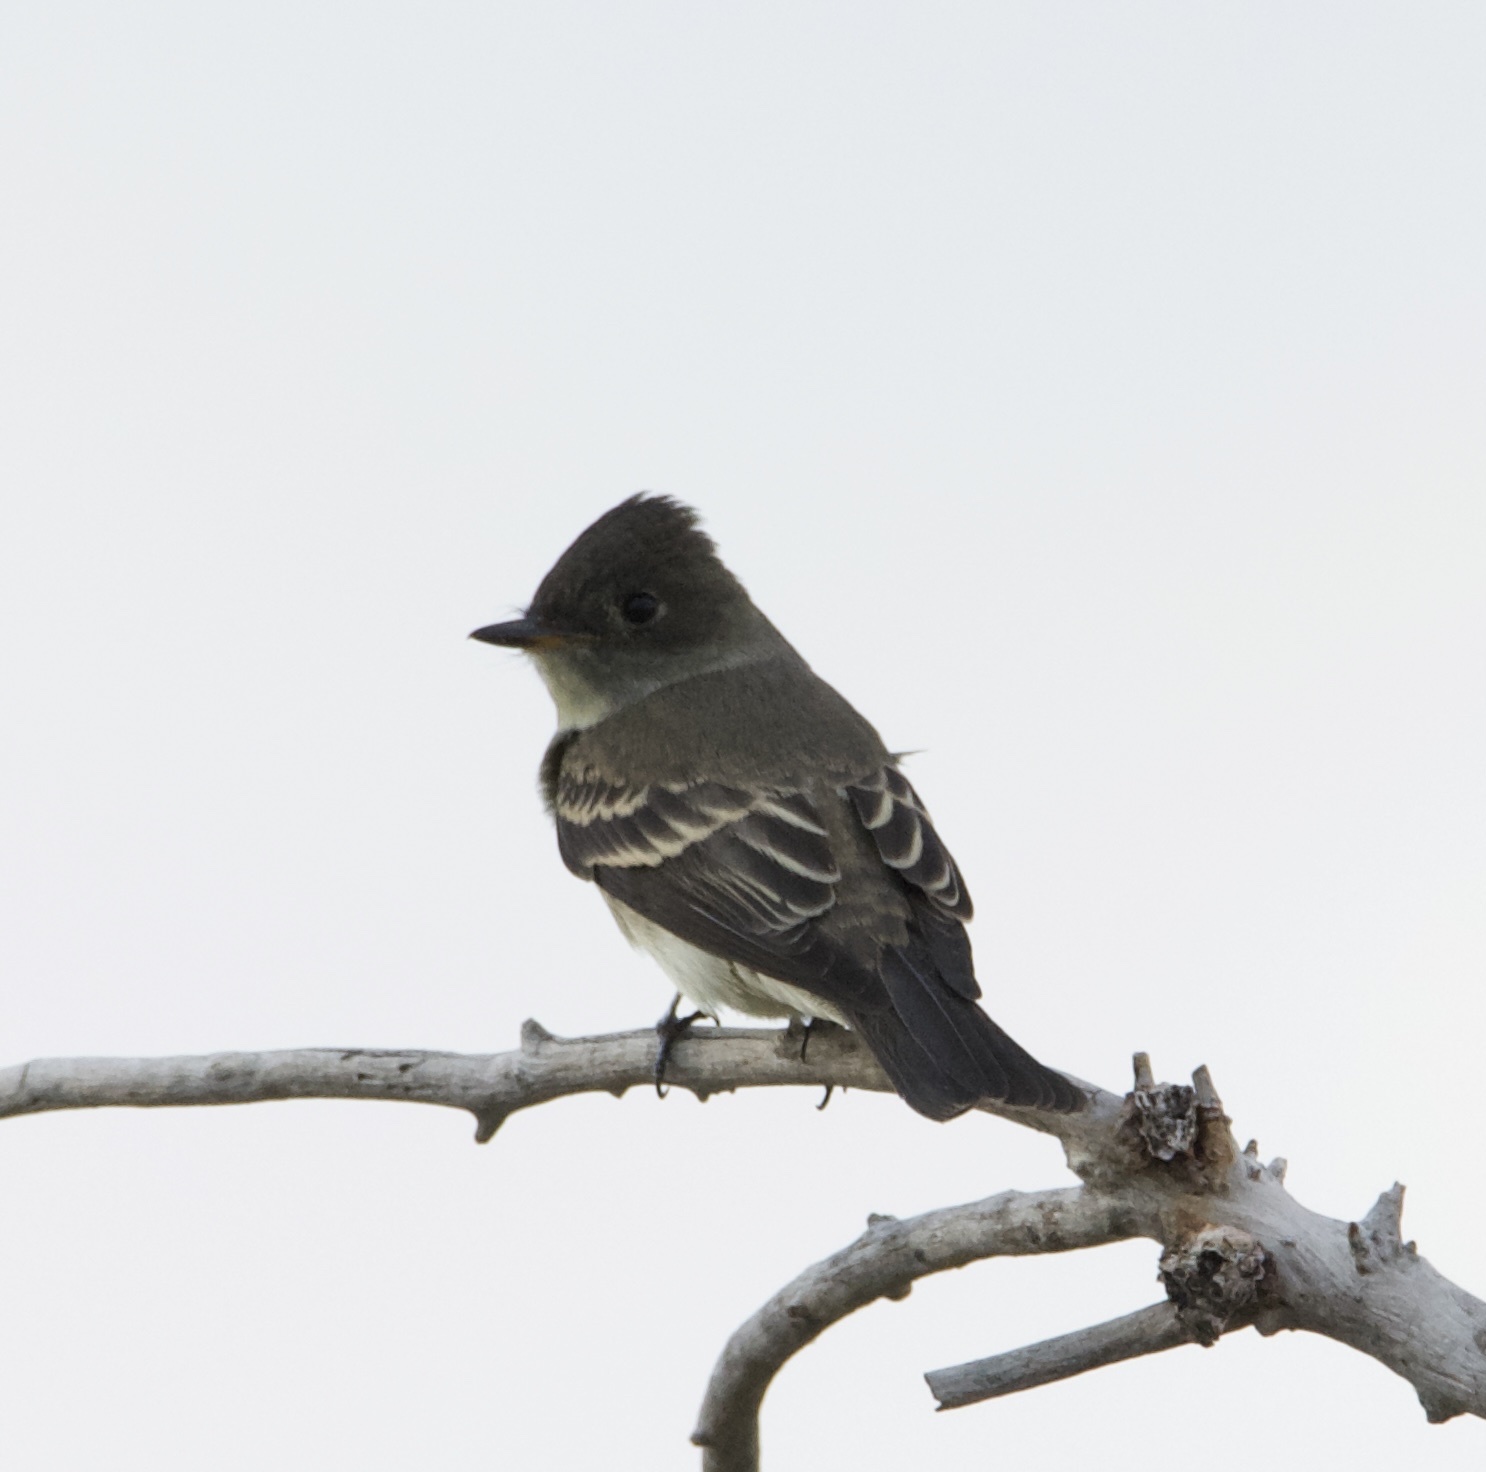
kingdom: Animalia
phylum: Chordata
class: Aves
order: Passeriformes
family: Tyrannidae
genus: Contopus
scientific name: Contopus sordidulus
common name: Western wood-pewee
